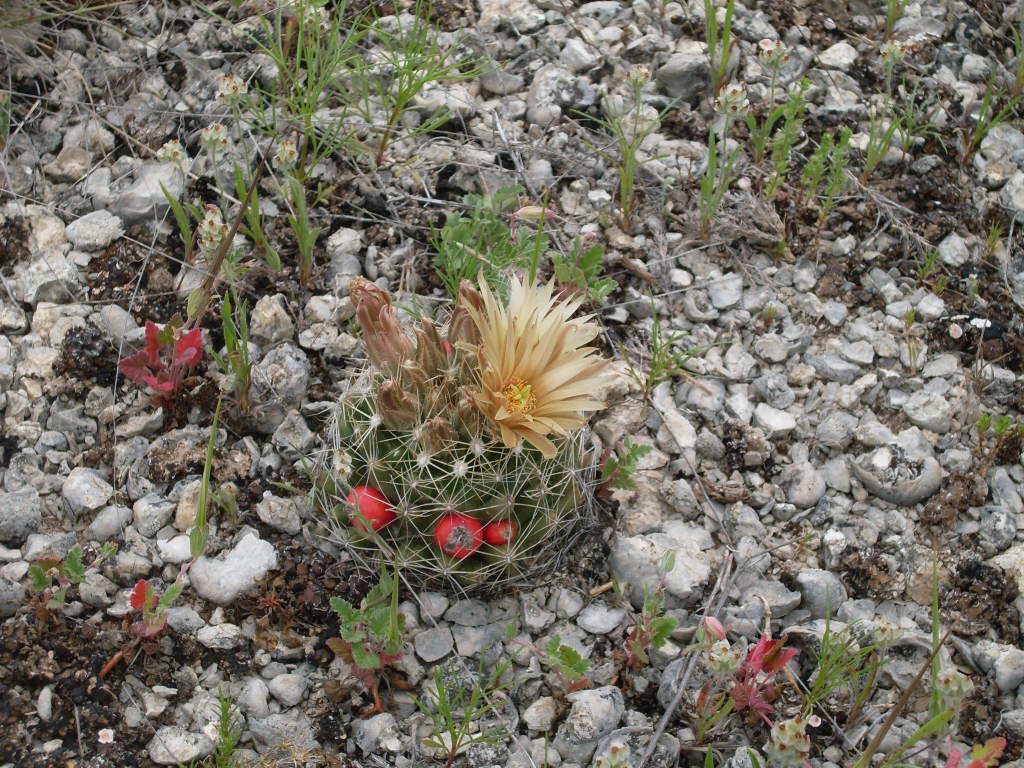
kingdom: Plantae
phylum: Tracheophyta
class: Magnoliopsida
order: Caryophyllales
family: Cactaceae
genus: Pelecyphora
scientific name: Pelecyphora missouriensis
